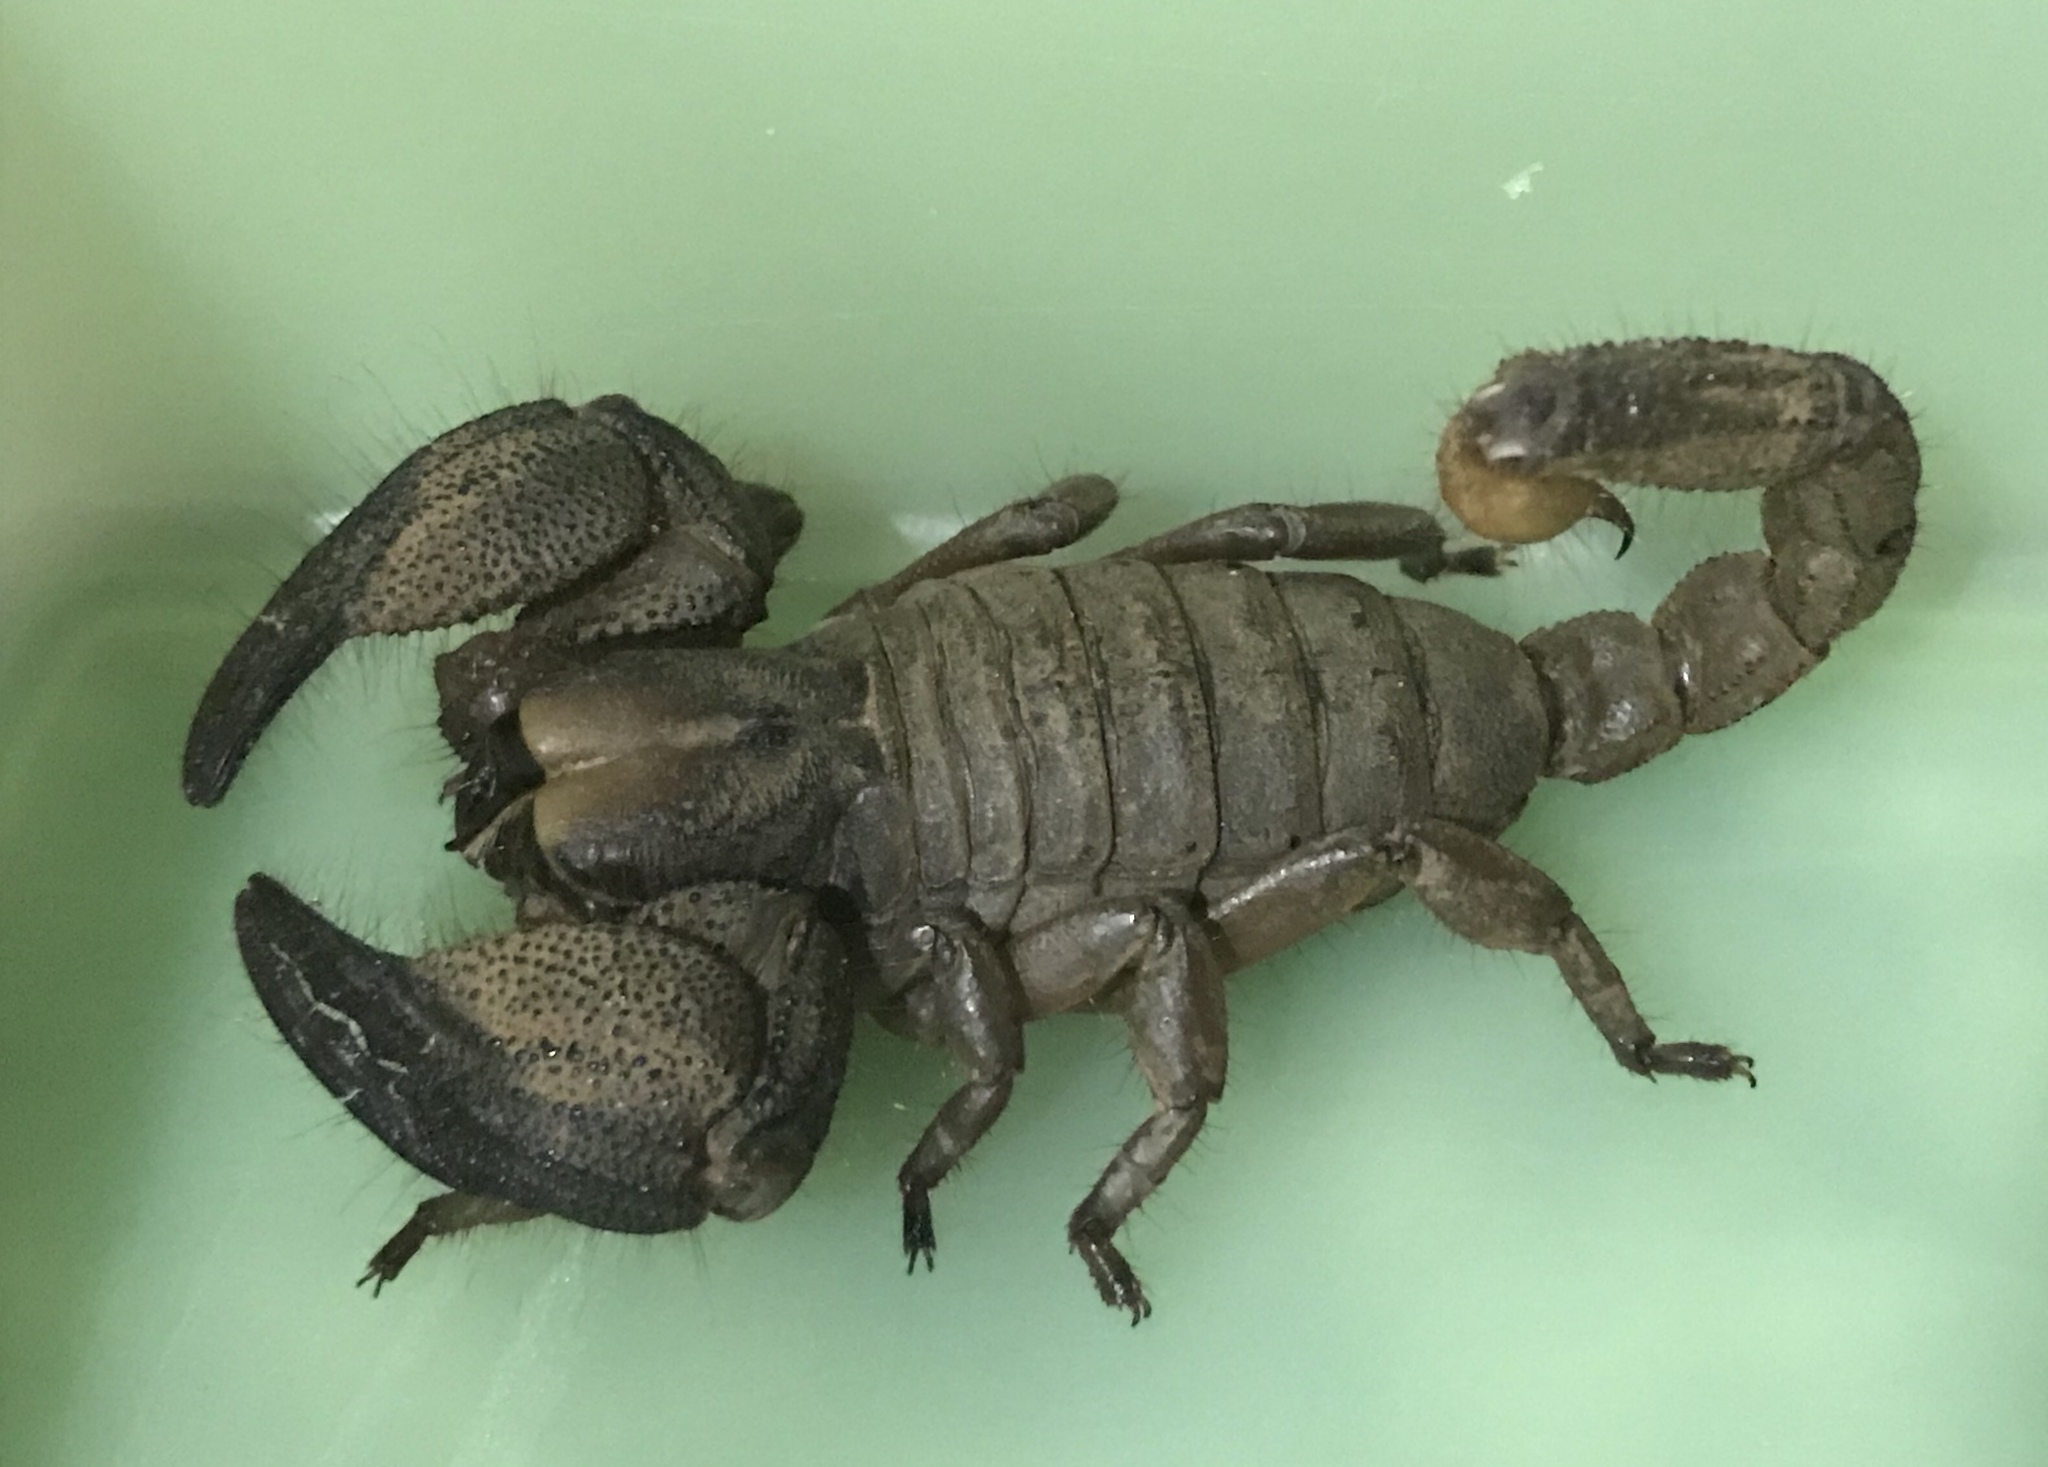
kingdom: Animalia
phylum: Arthropoda
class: Arachnida
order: Scorpiones
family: Scorpionidae
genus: Opistophthalmus
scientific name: Opistophthalmus pugnax
